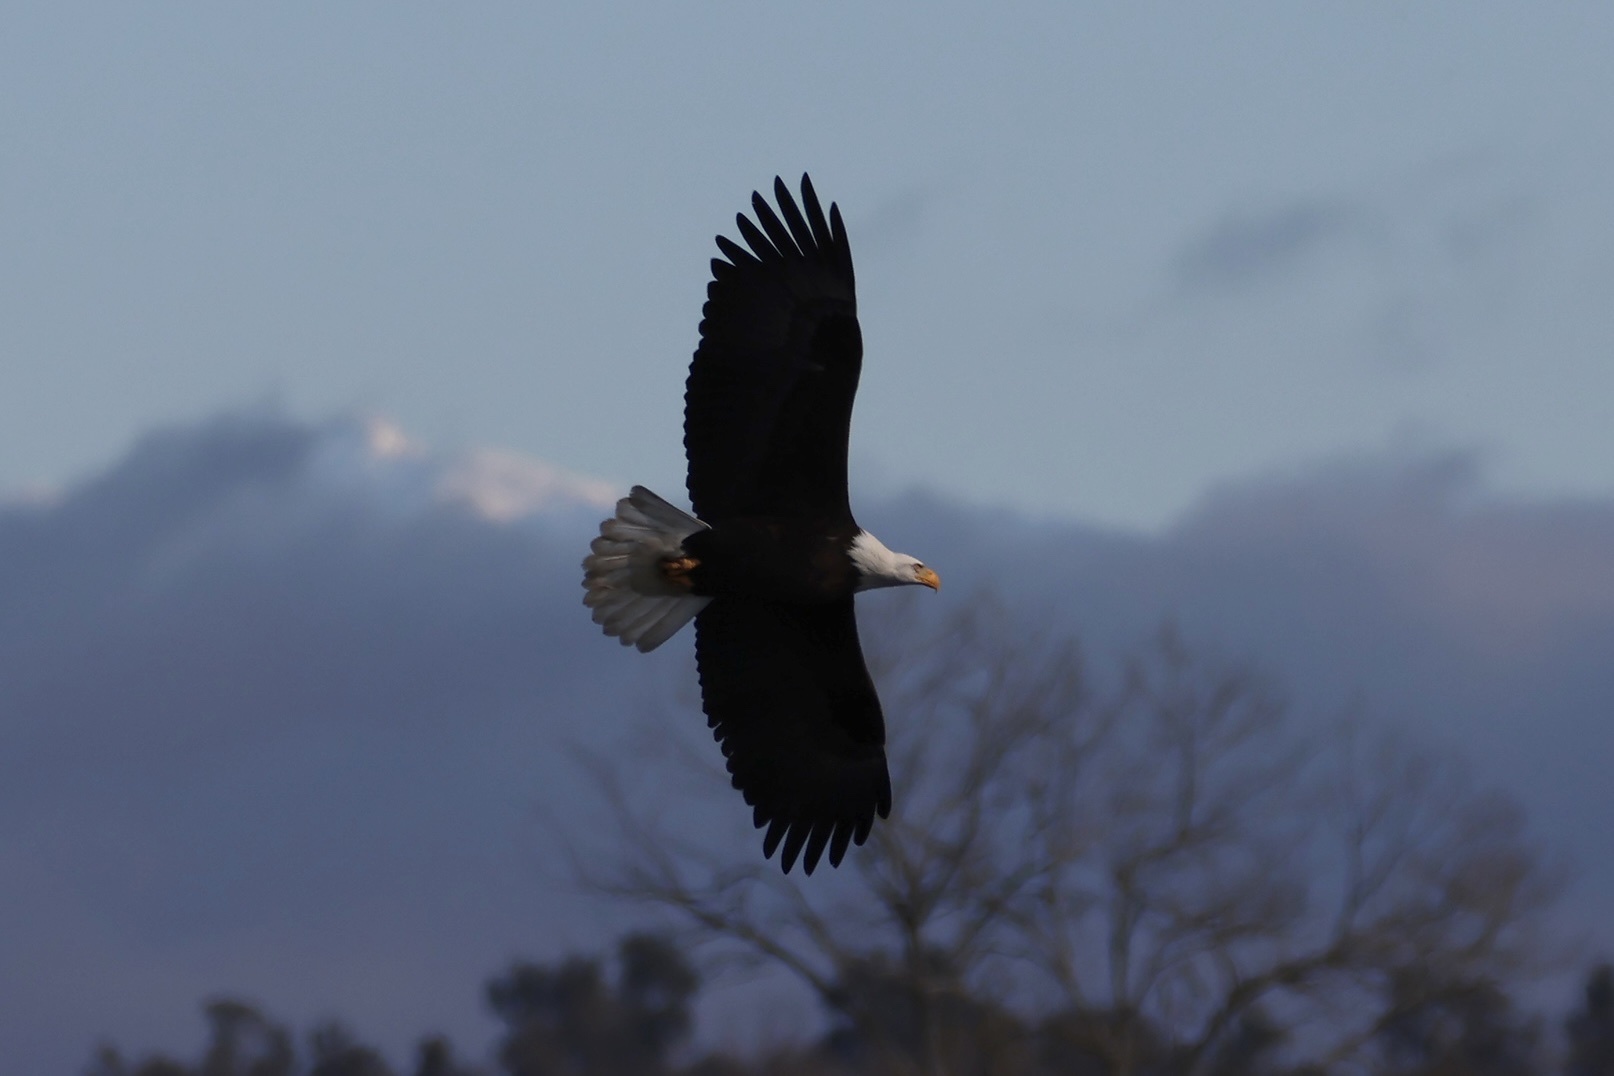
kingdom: Animalia
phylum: Chordata
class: Aves
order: Accipitriformes
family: Accipitridae
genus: Haliaeetus
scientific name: Haliaeetus leucocephalus
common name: Bald eagle
